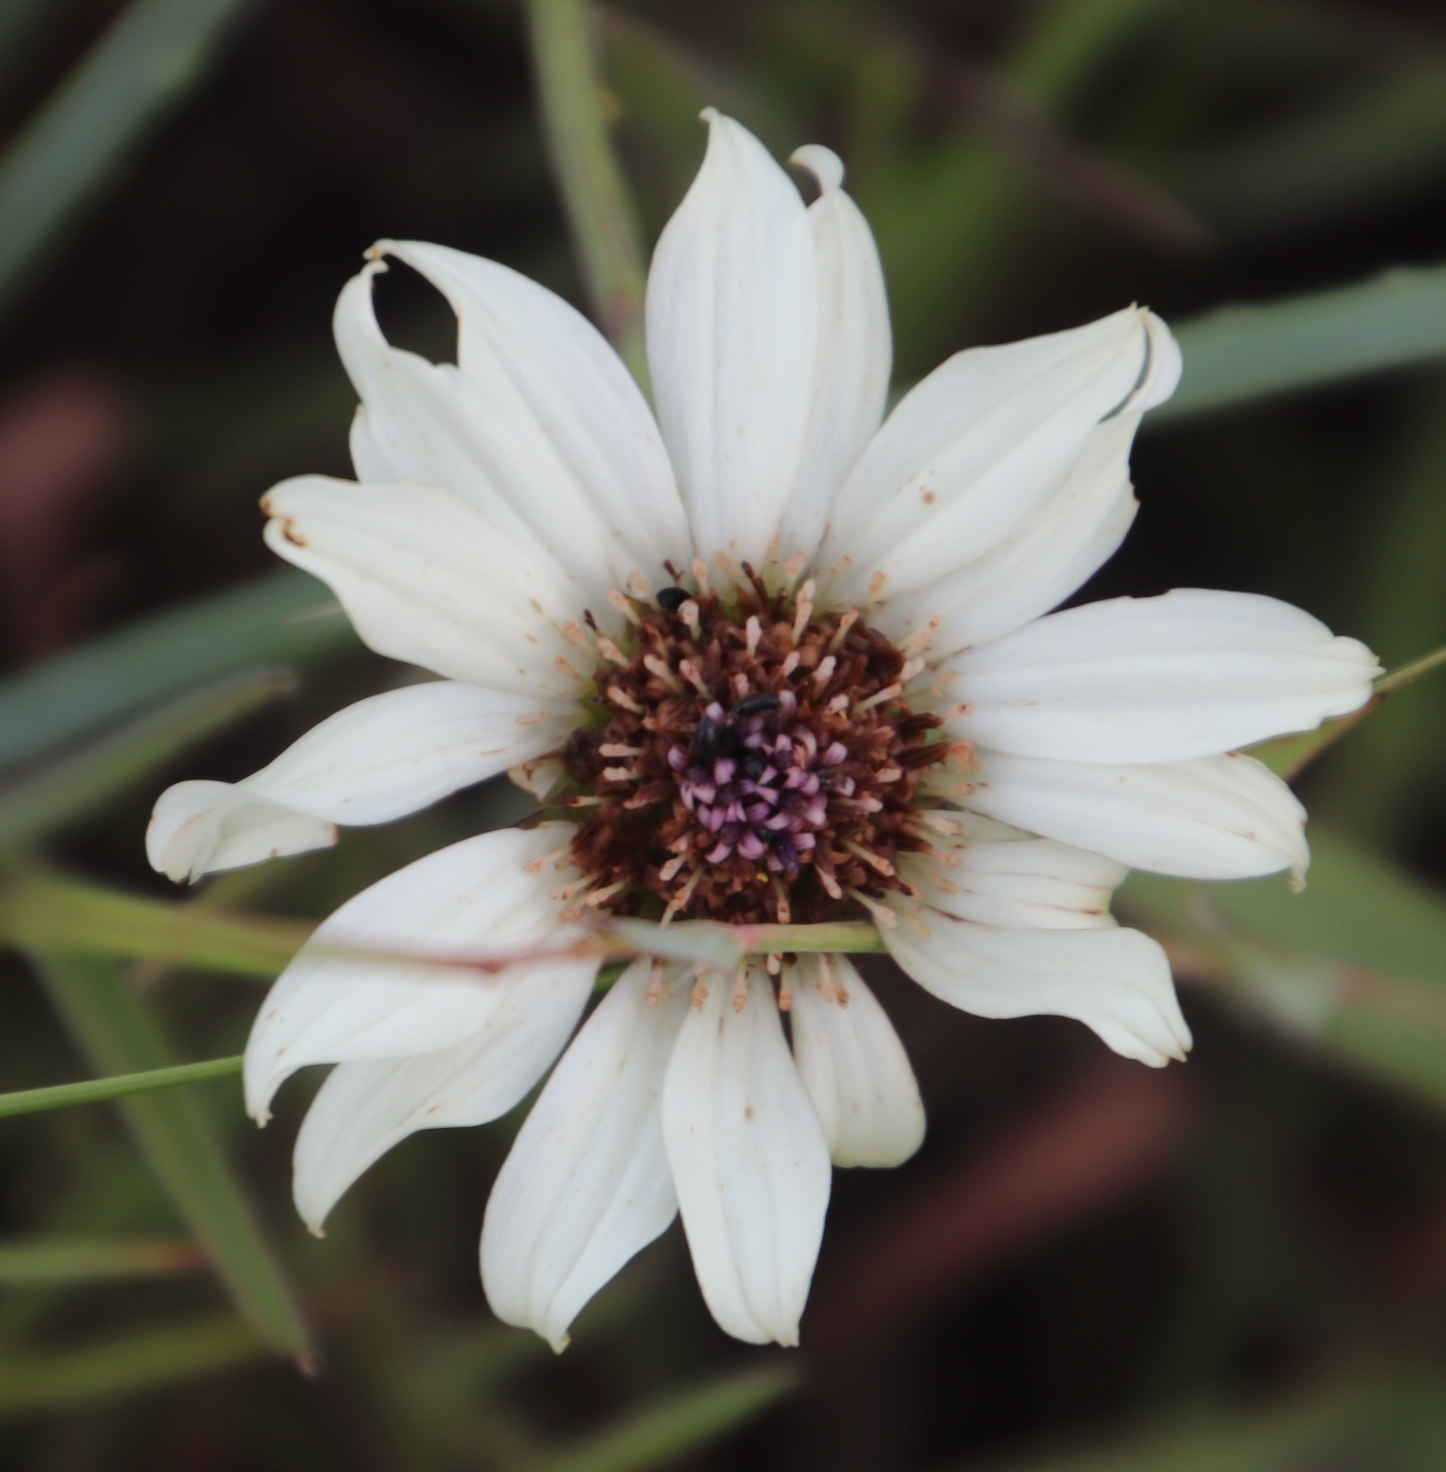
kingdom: Plantae
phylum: Tracheophyta
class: Magnoliopsida
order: Asterales
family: Asteraceae
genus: Callilepis
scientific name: Callilepis leptophylla
